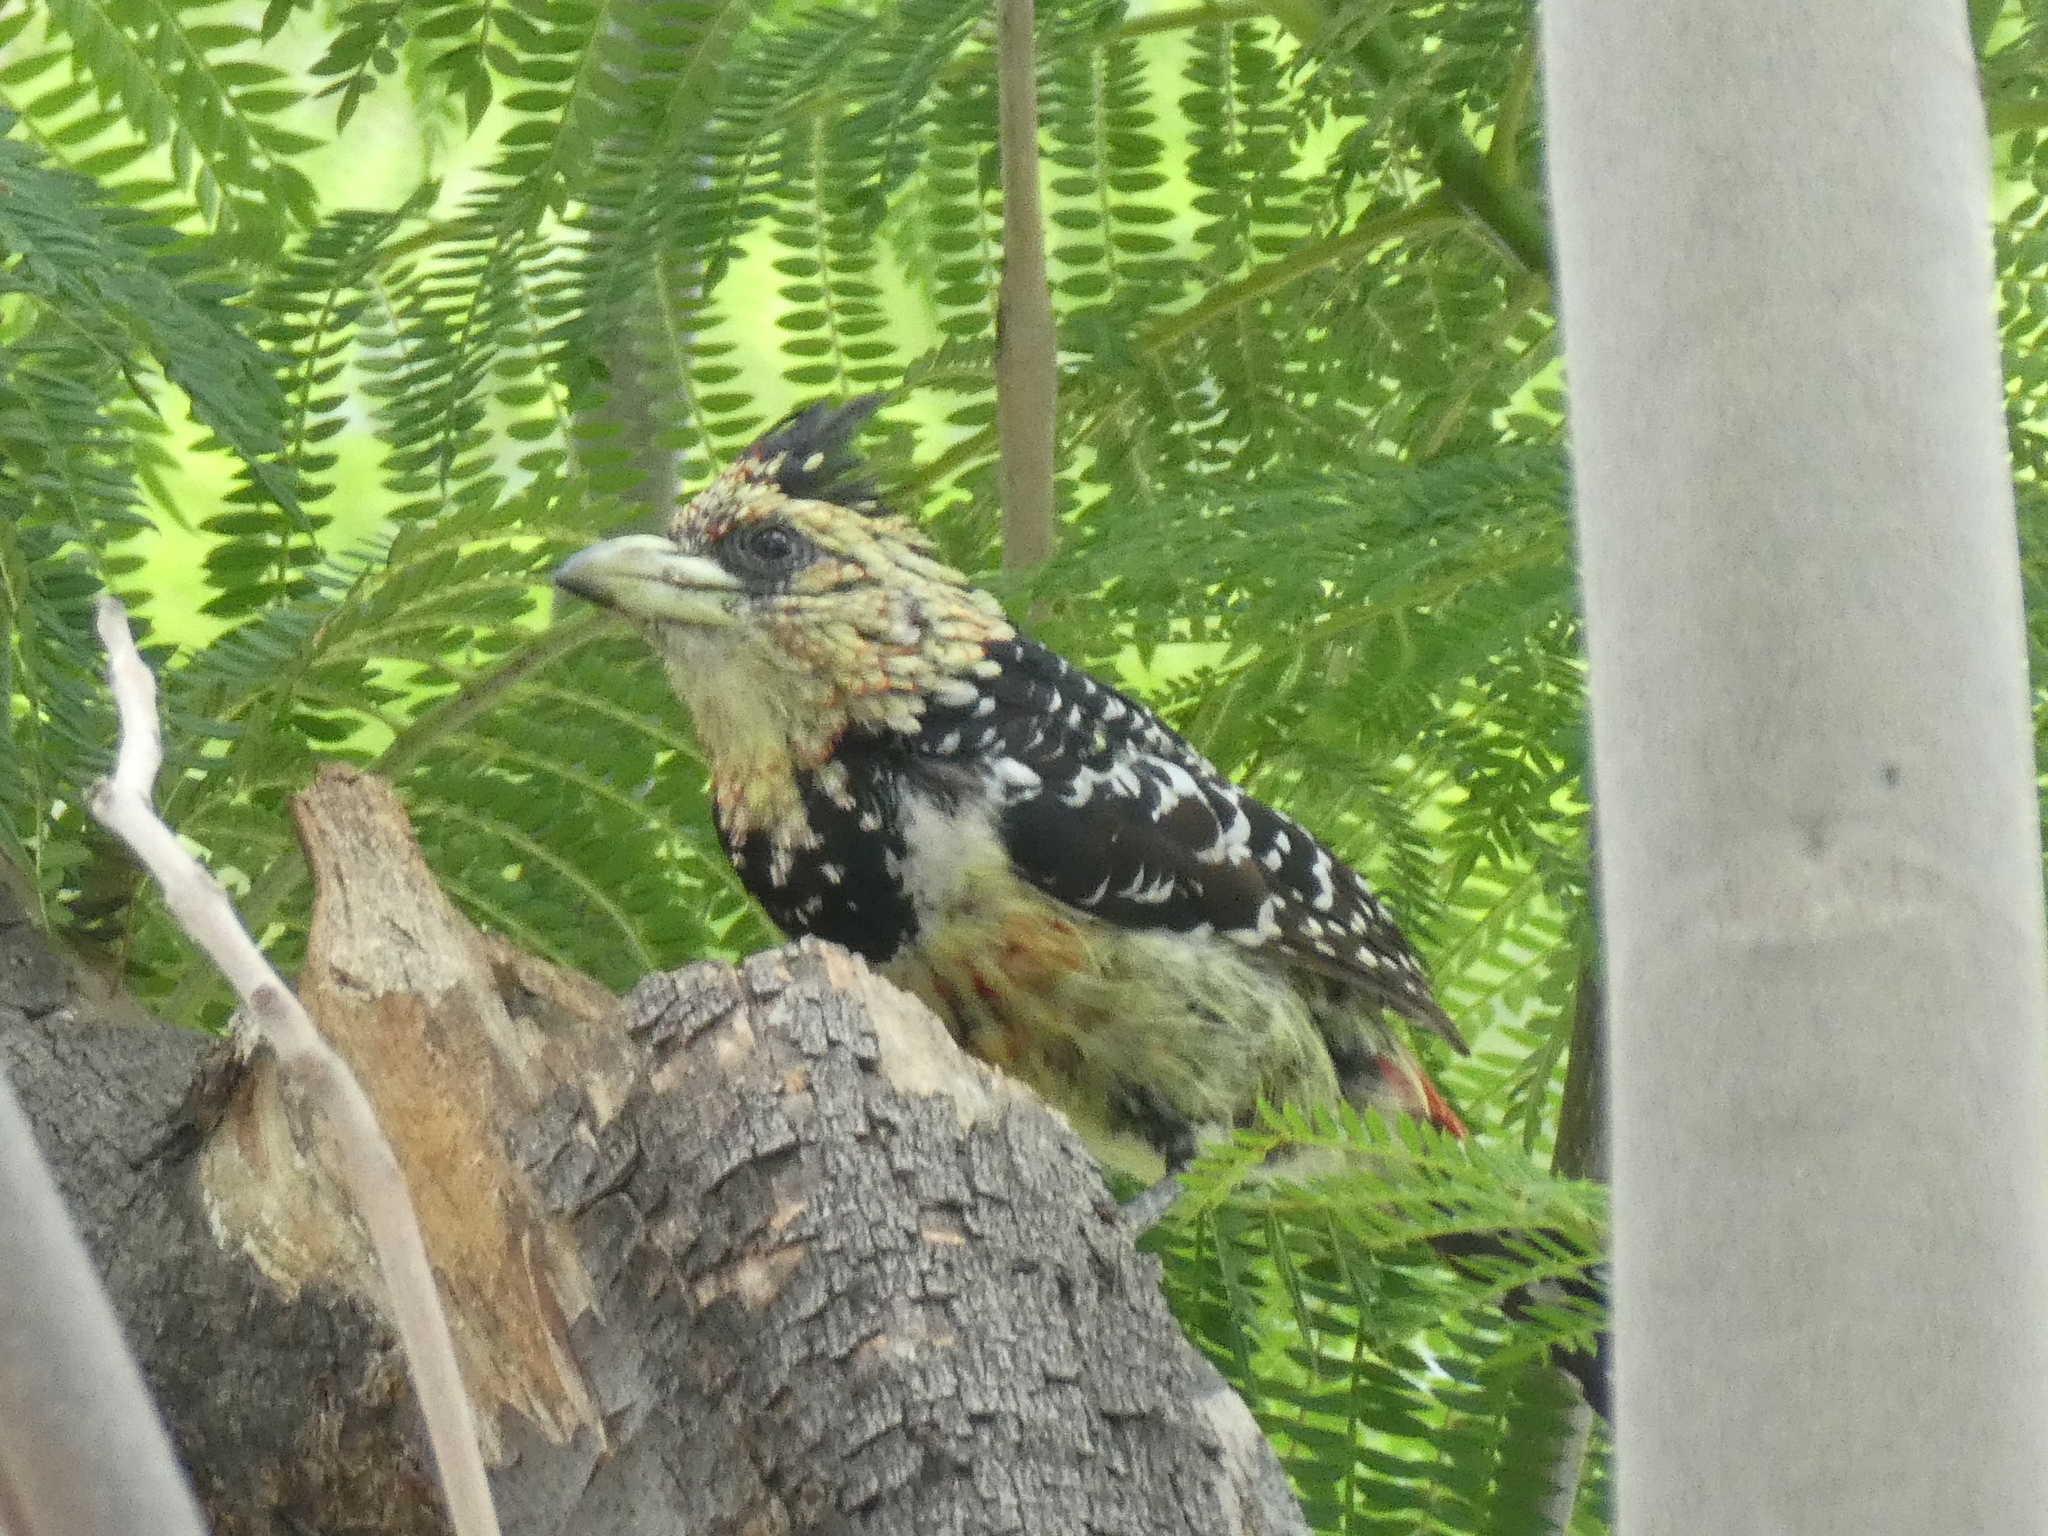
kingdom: Animalia
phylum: Chordata
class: Aves
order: Piciformes
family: Lybiidae
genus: Trachyphonus
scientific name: Trachyphonus vaillantii
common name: Crested barbet
